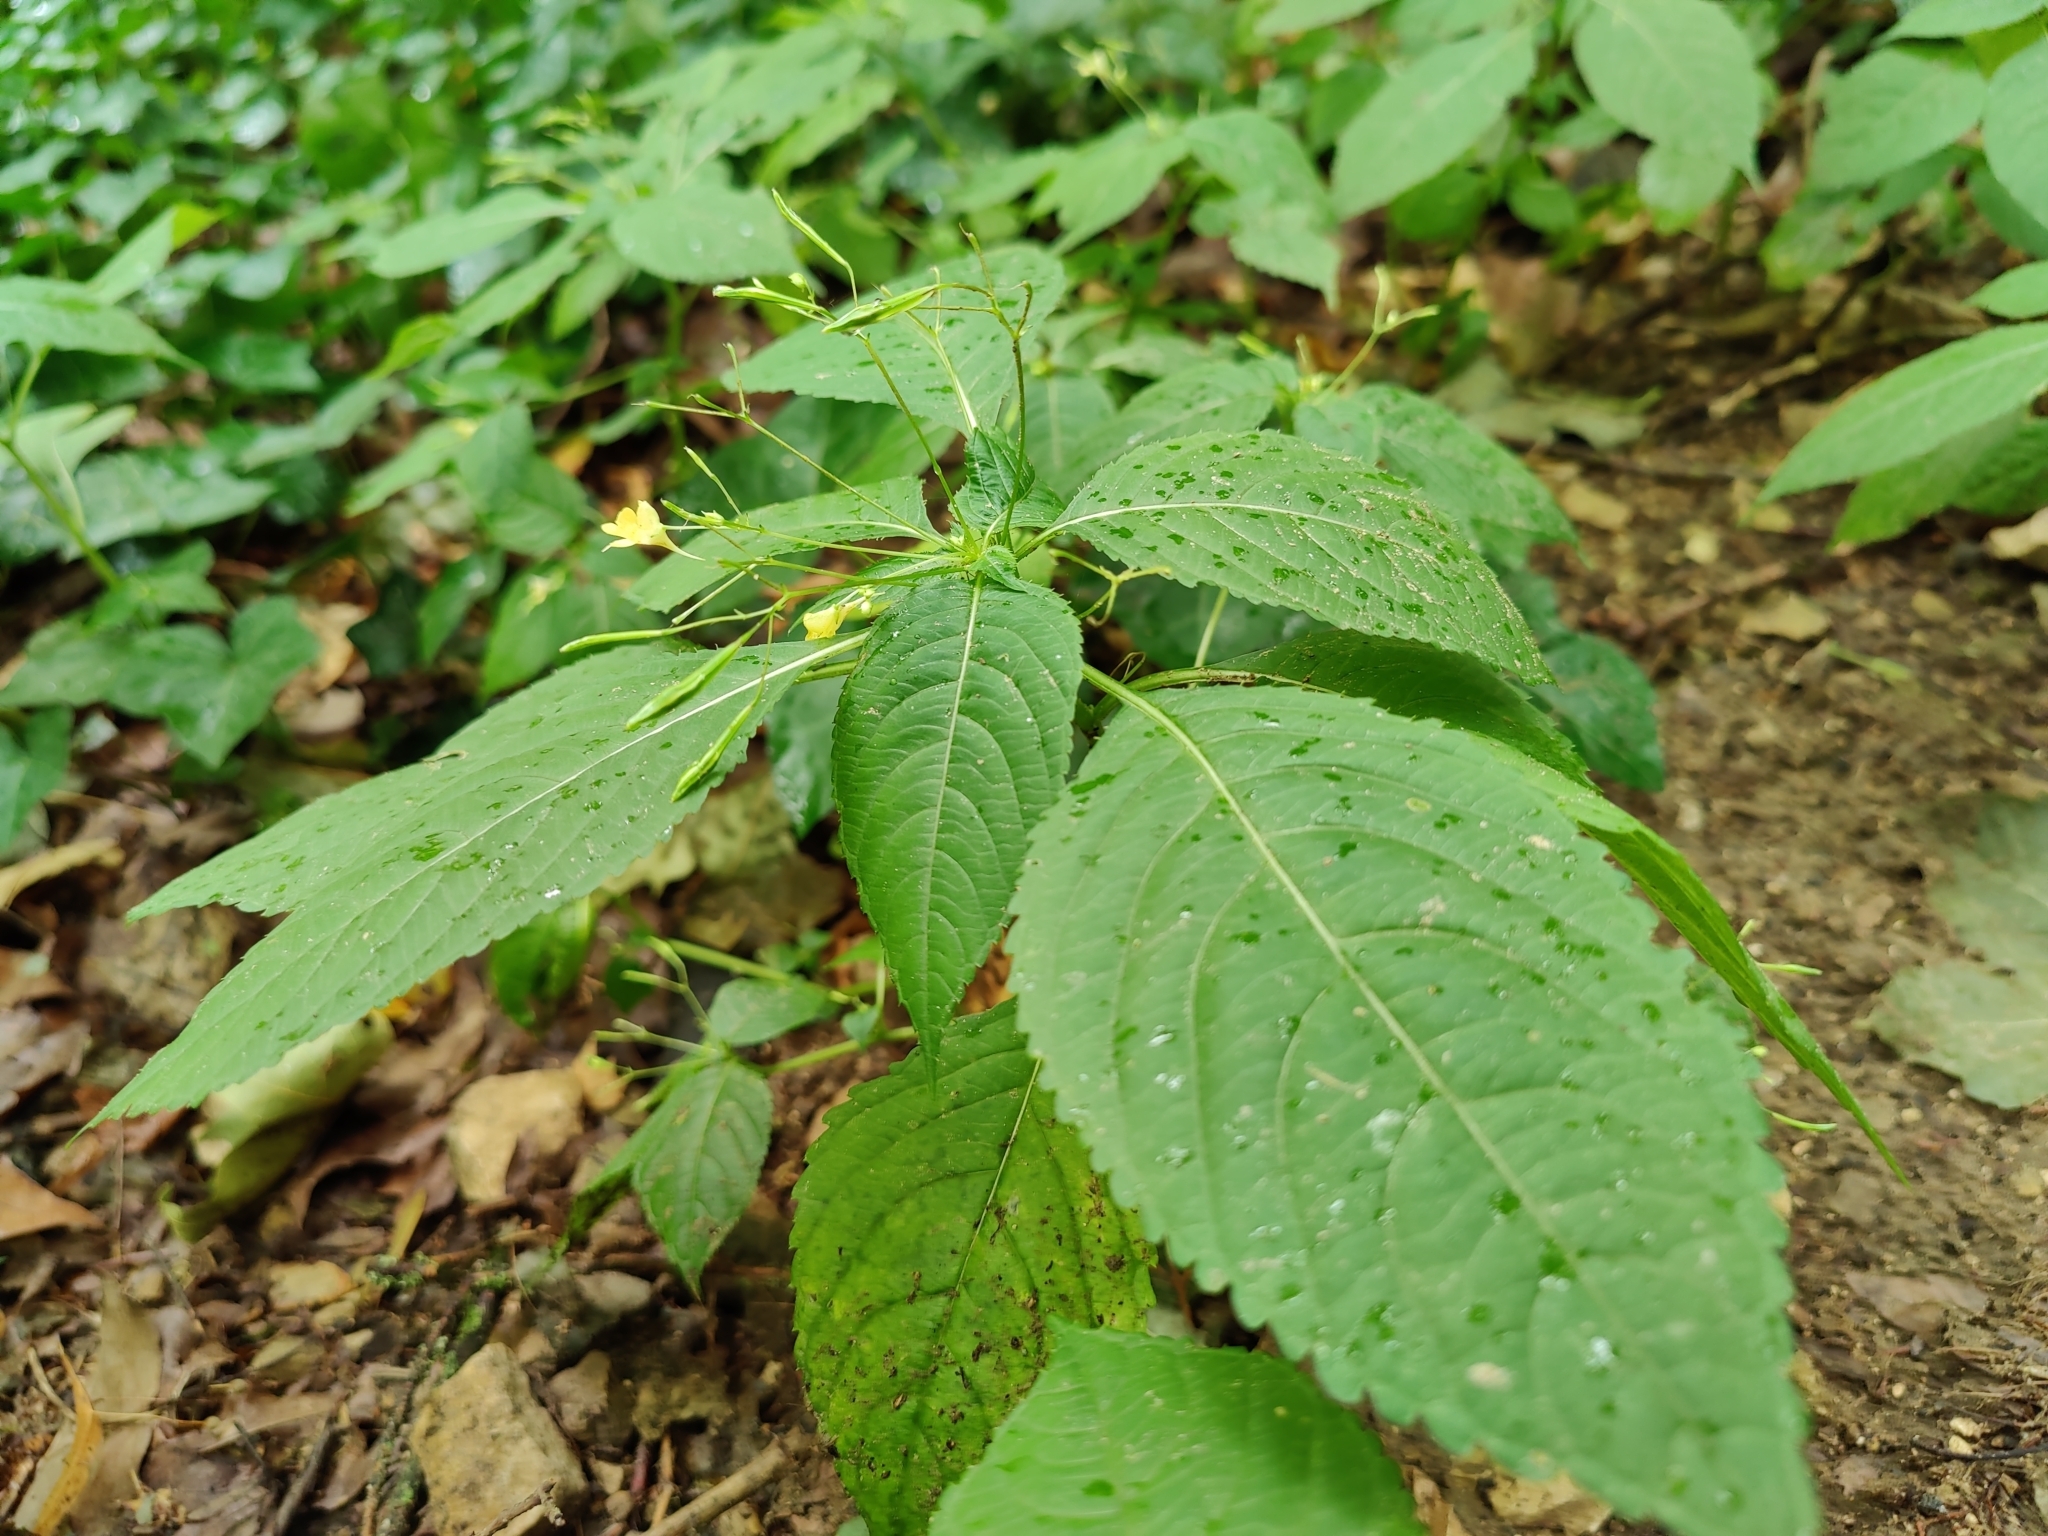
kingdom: Plantae
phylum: Tracheophyta
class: Magnoliopsida
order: Ericales
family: Balsaminaceae
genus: Impatiens
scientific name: Impatiens parviflora
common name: Small balsam
